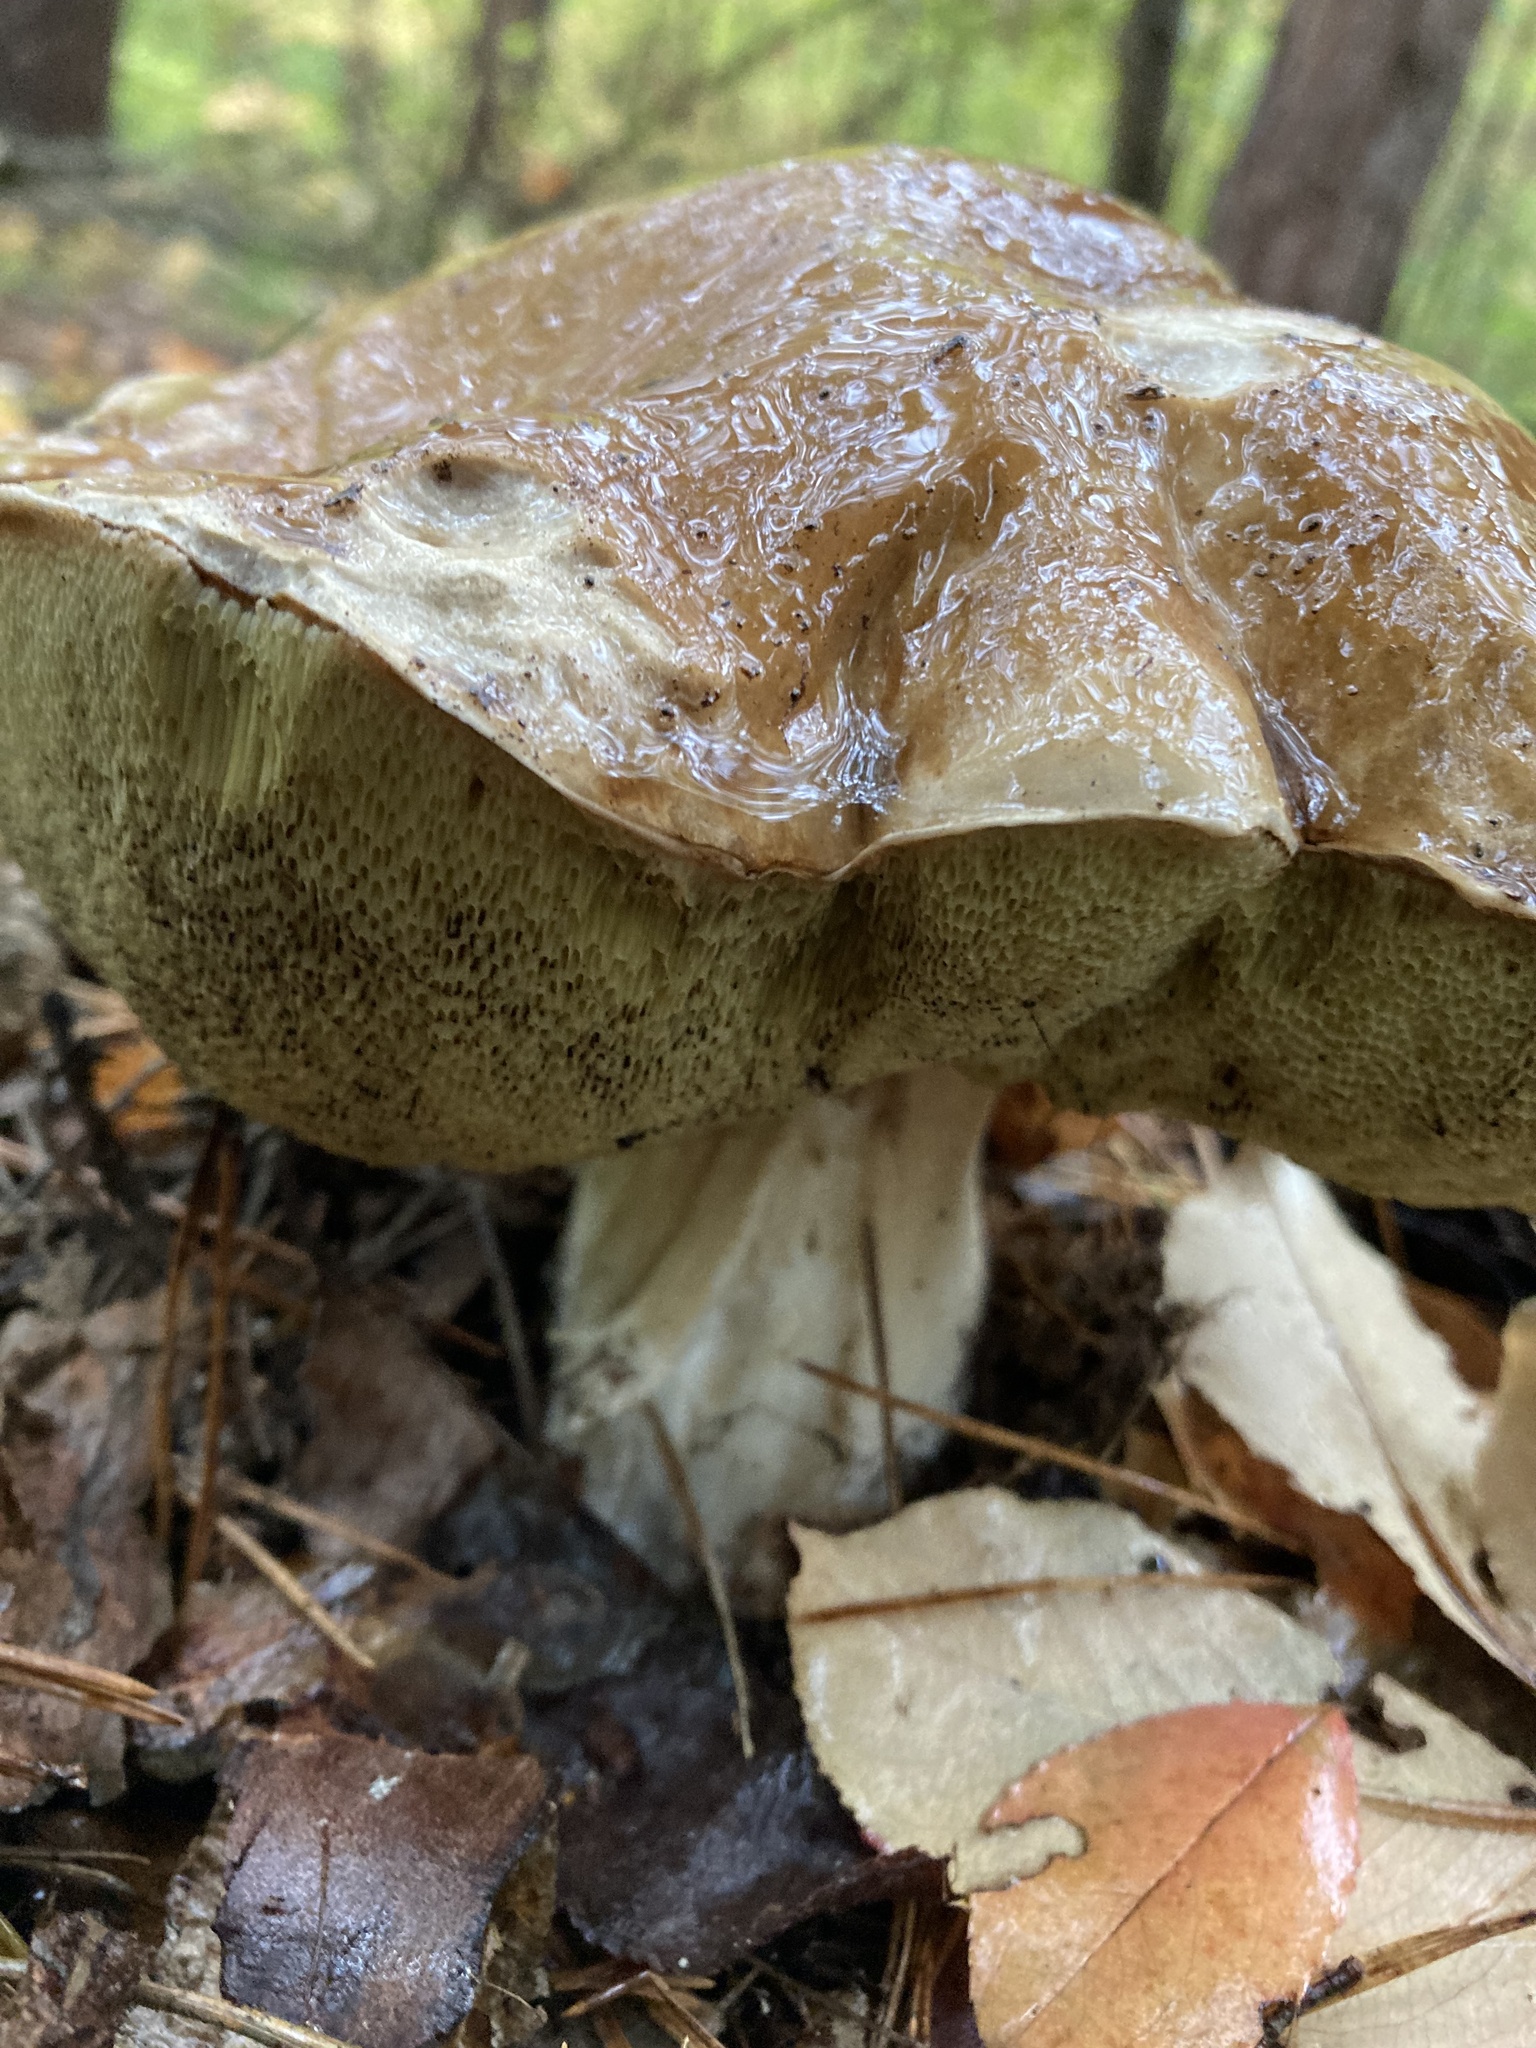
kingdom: Fungi
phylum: Basidiomycota
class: Agaricomycetes
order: Boletales
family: Boletaceae
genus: Boletus
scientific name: Boletus edulis
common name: Cep
